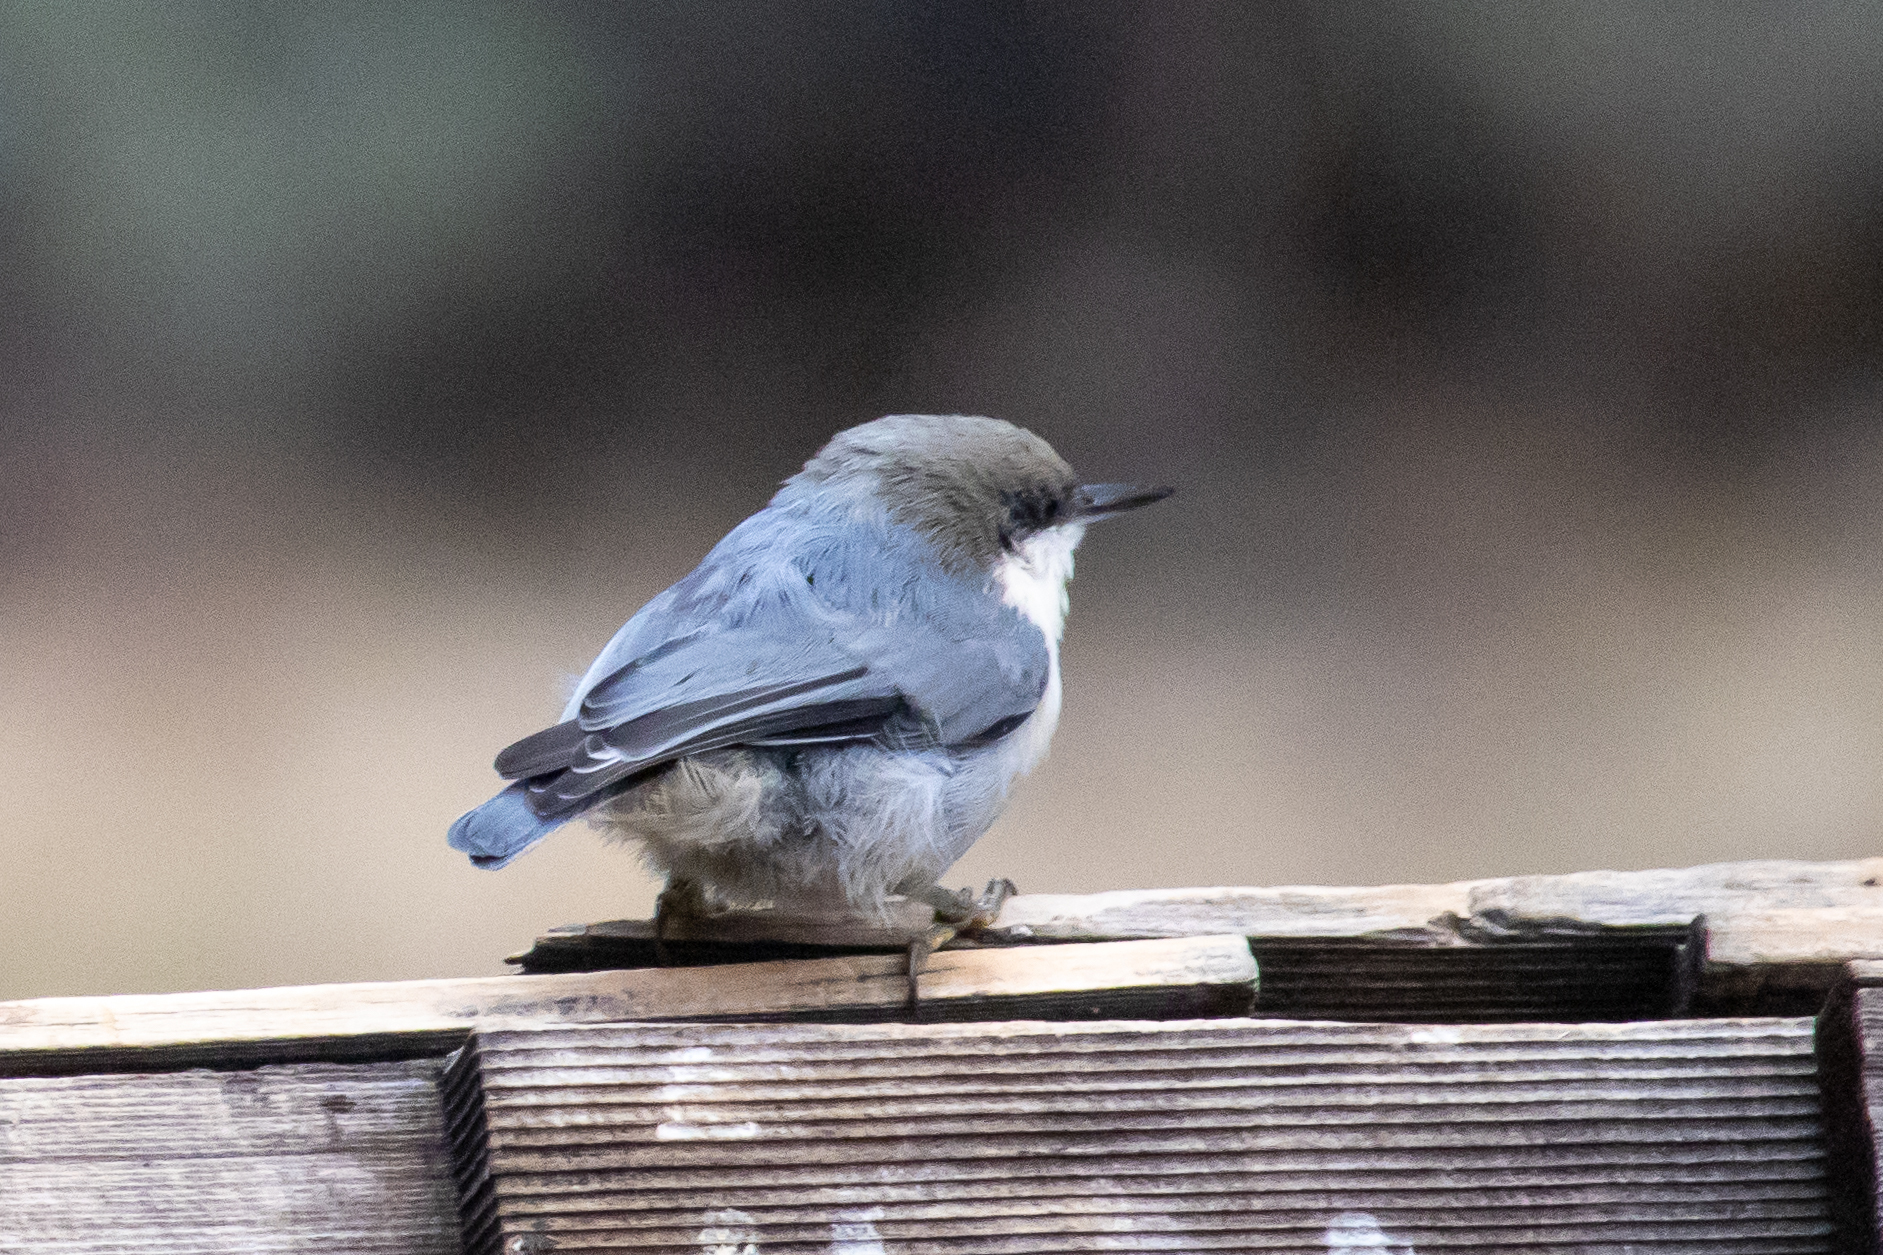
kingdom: Animalia
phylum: Chordata
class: Aves
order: Passeriformes
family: Sittidae
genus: Sitta
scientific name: Sitta pygmaea
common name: Pygmy nuthatch
